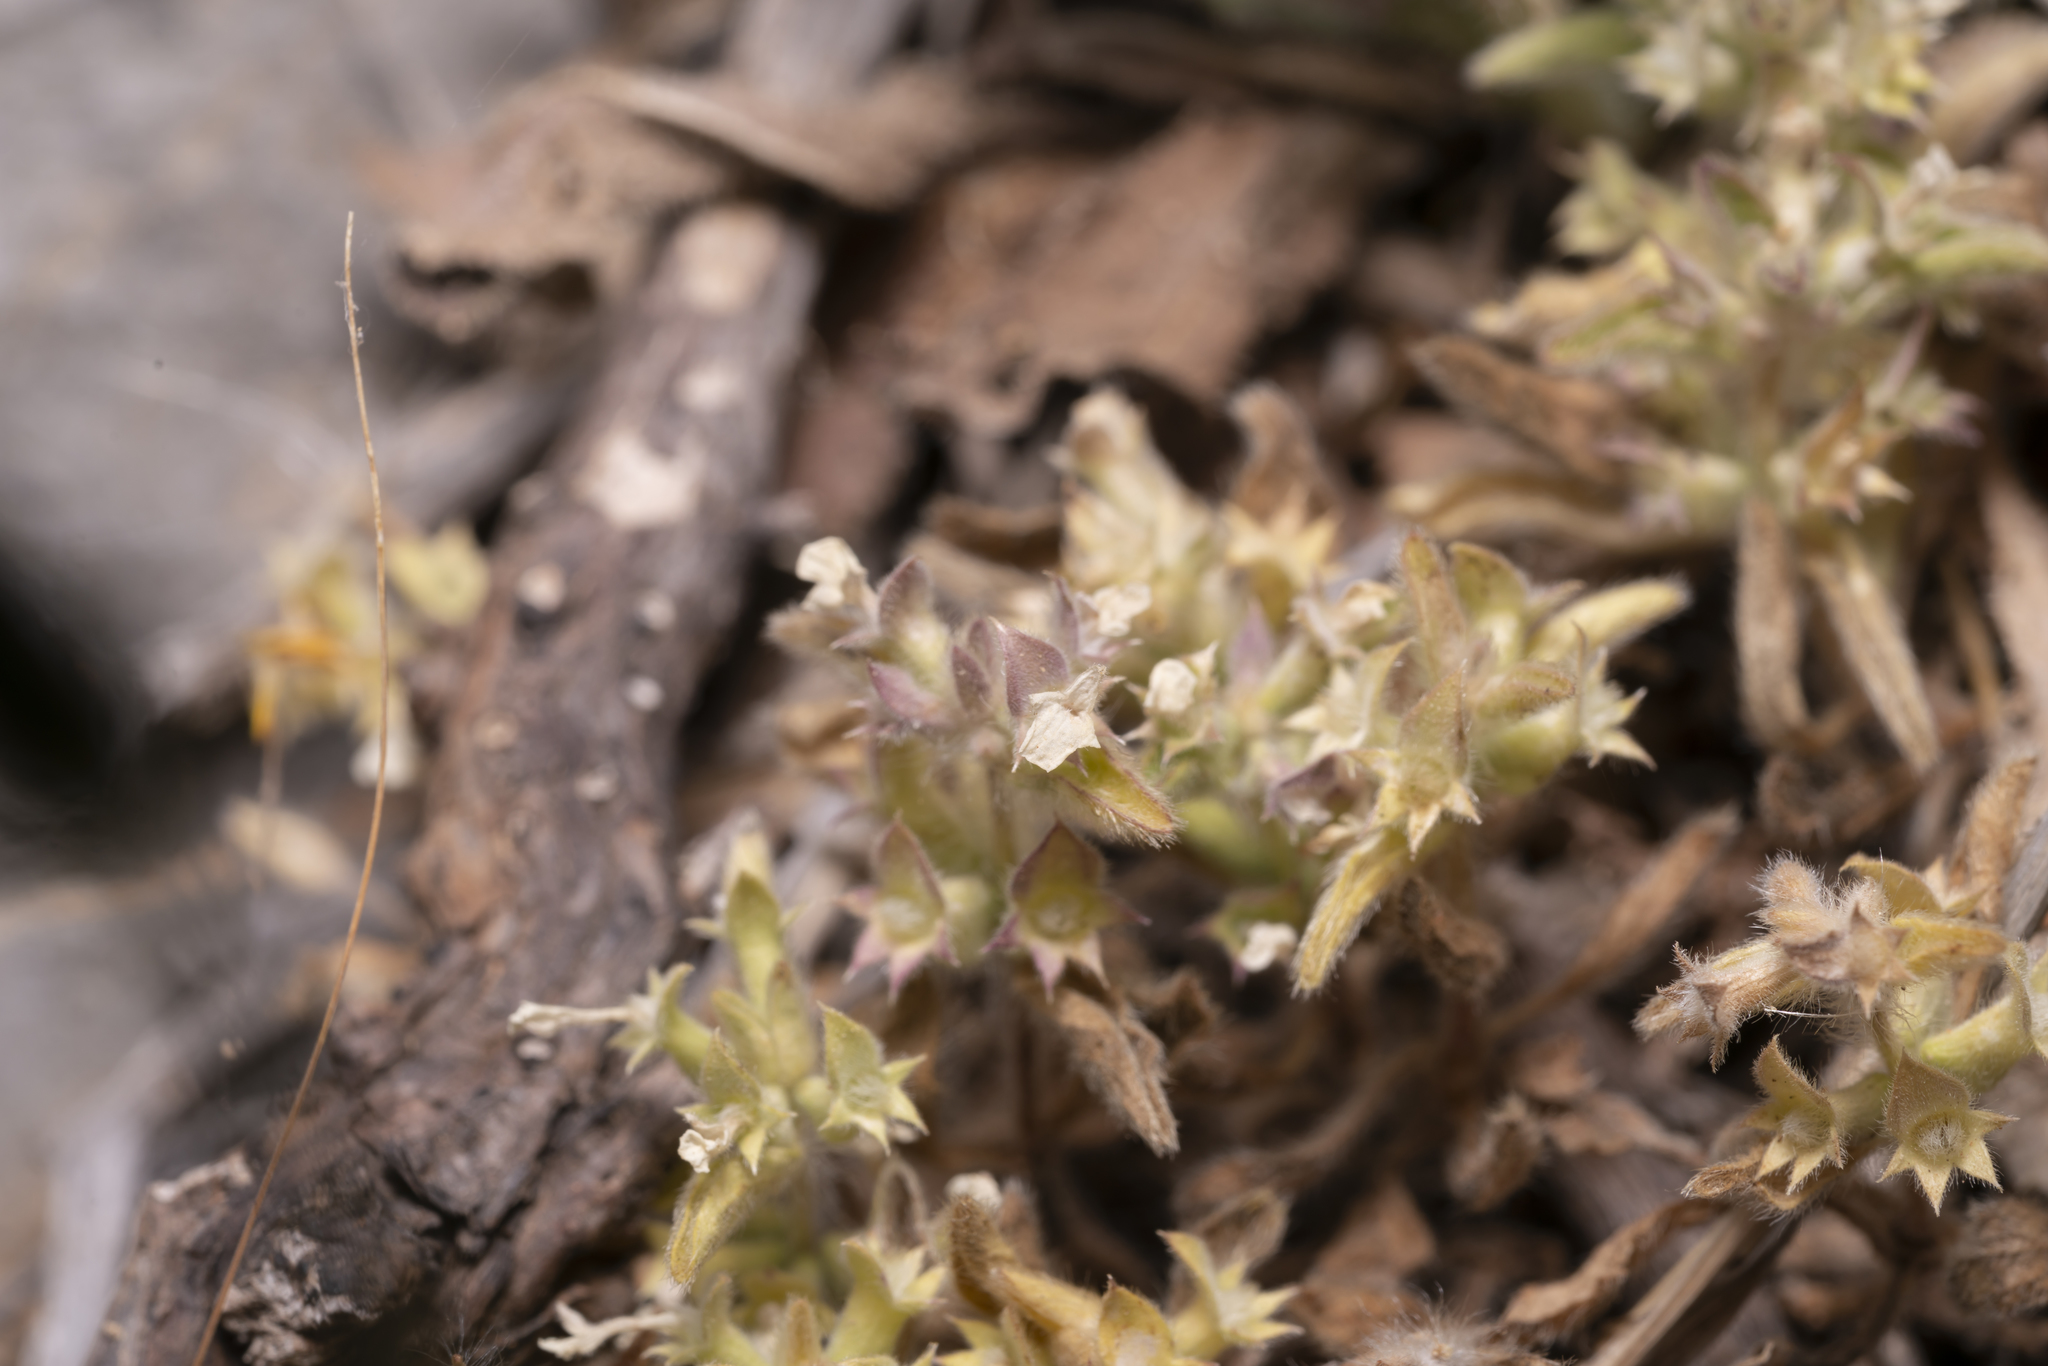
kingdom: Plantae
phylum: Tracheophyta
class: Magnoliopsida
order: Lamiales
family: Lamiaceae
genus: Sideritis
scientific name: Sideritis romana
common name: Simplebeak ironwort
